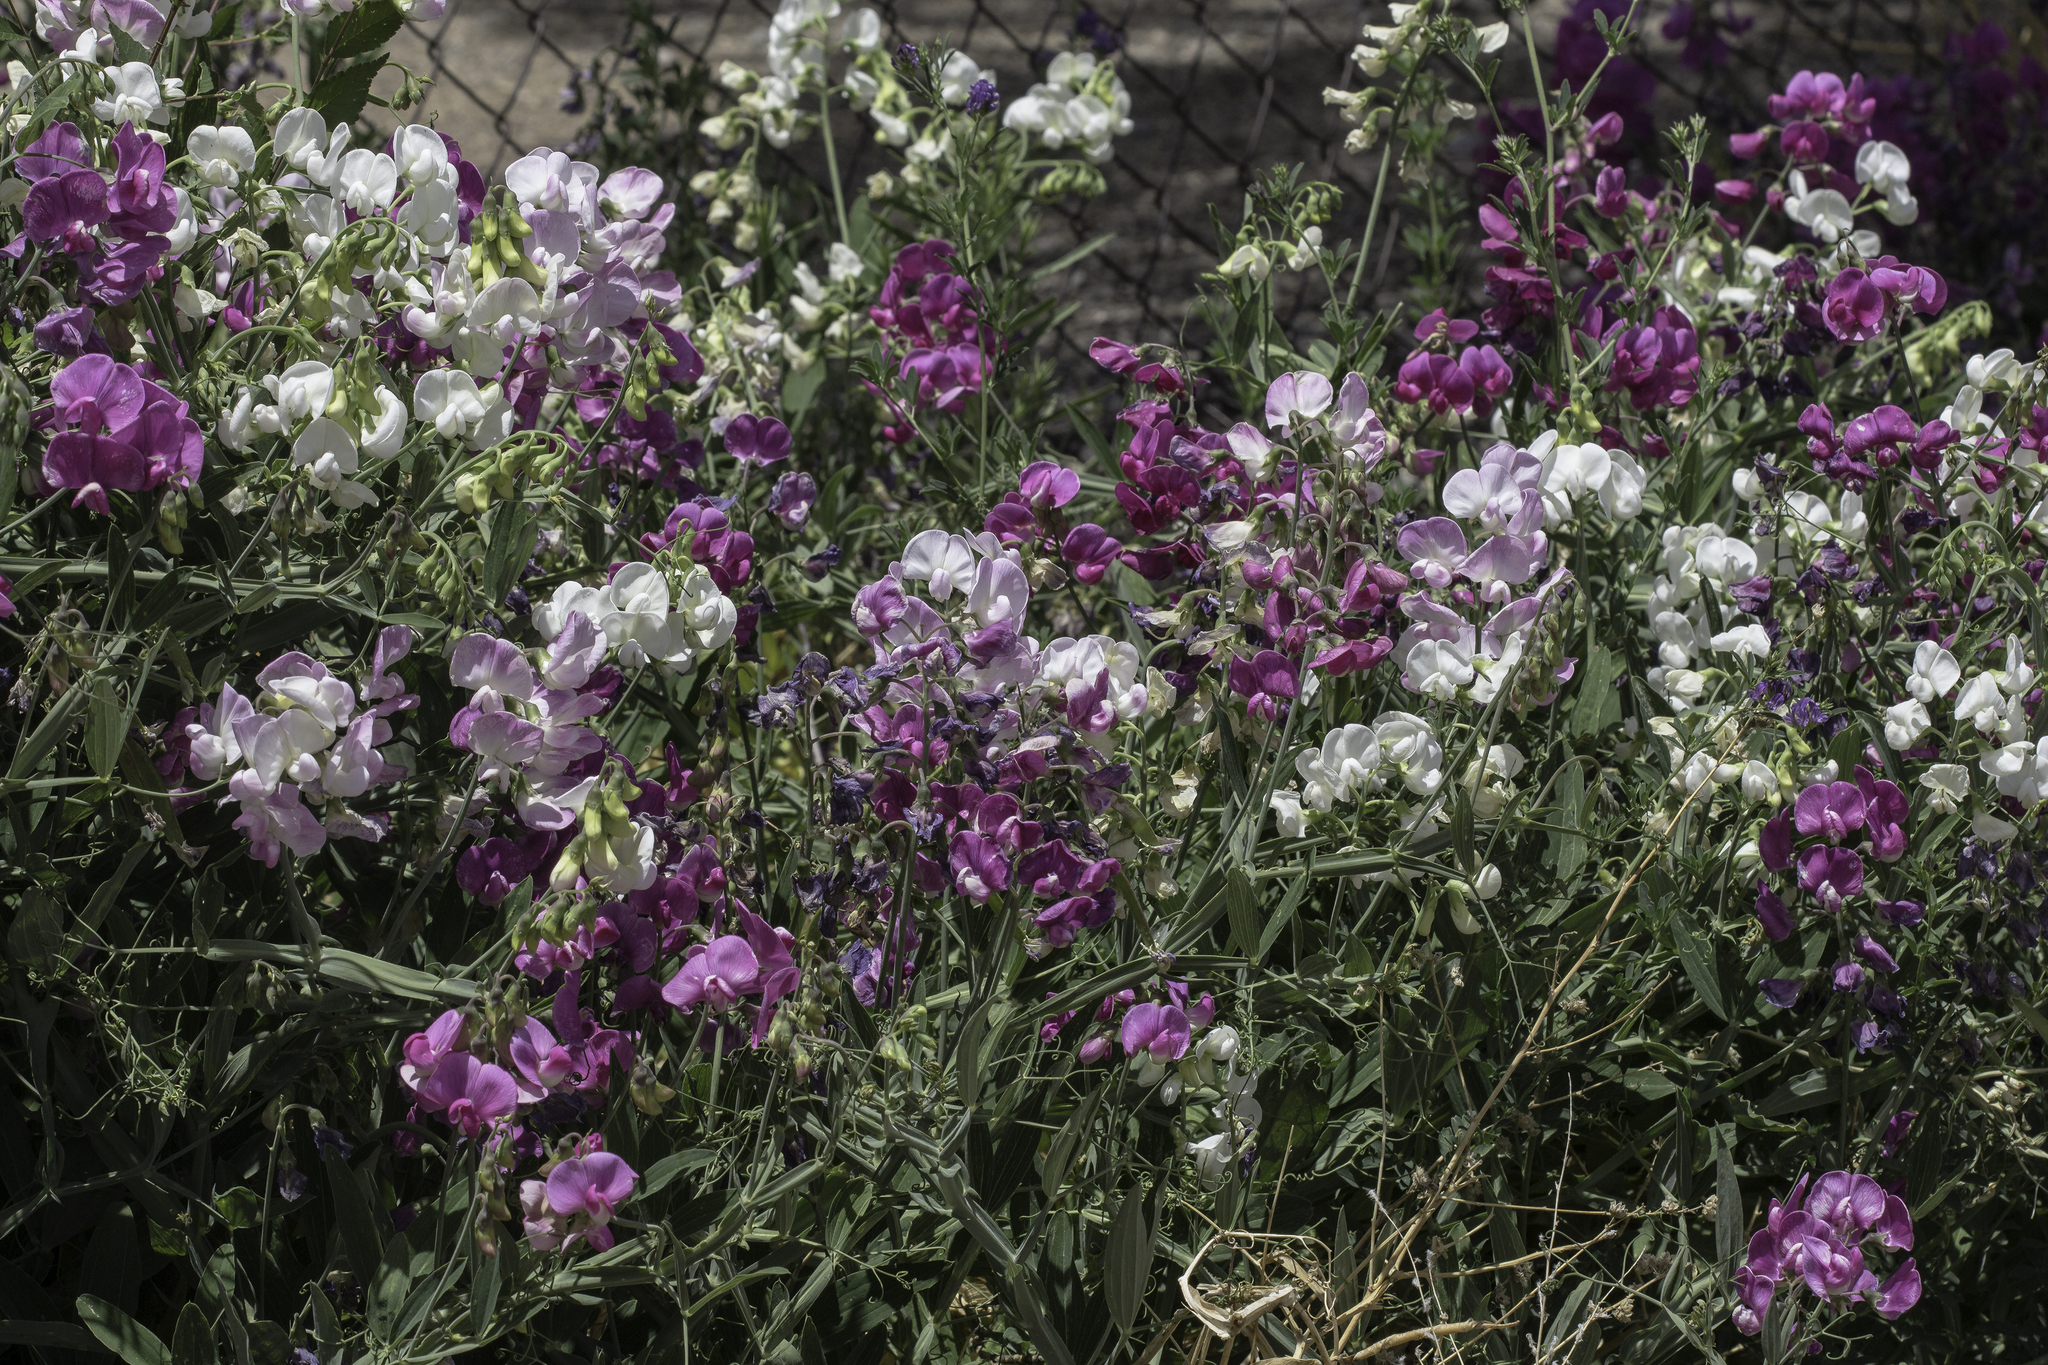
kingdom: Plantae
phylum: Tracheophyta
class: Magnoliopsida
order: Fabales
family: Fabaceae
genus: Lathyrus
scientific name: Lathyrus latifolius
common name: Perennial pea
